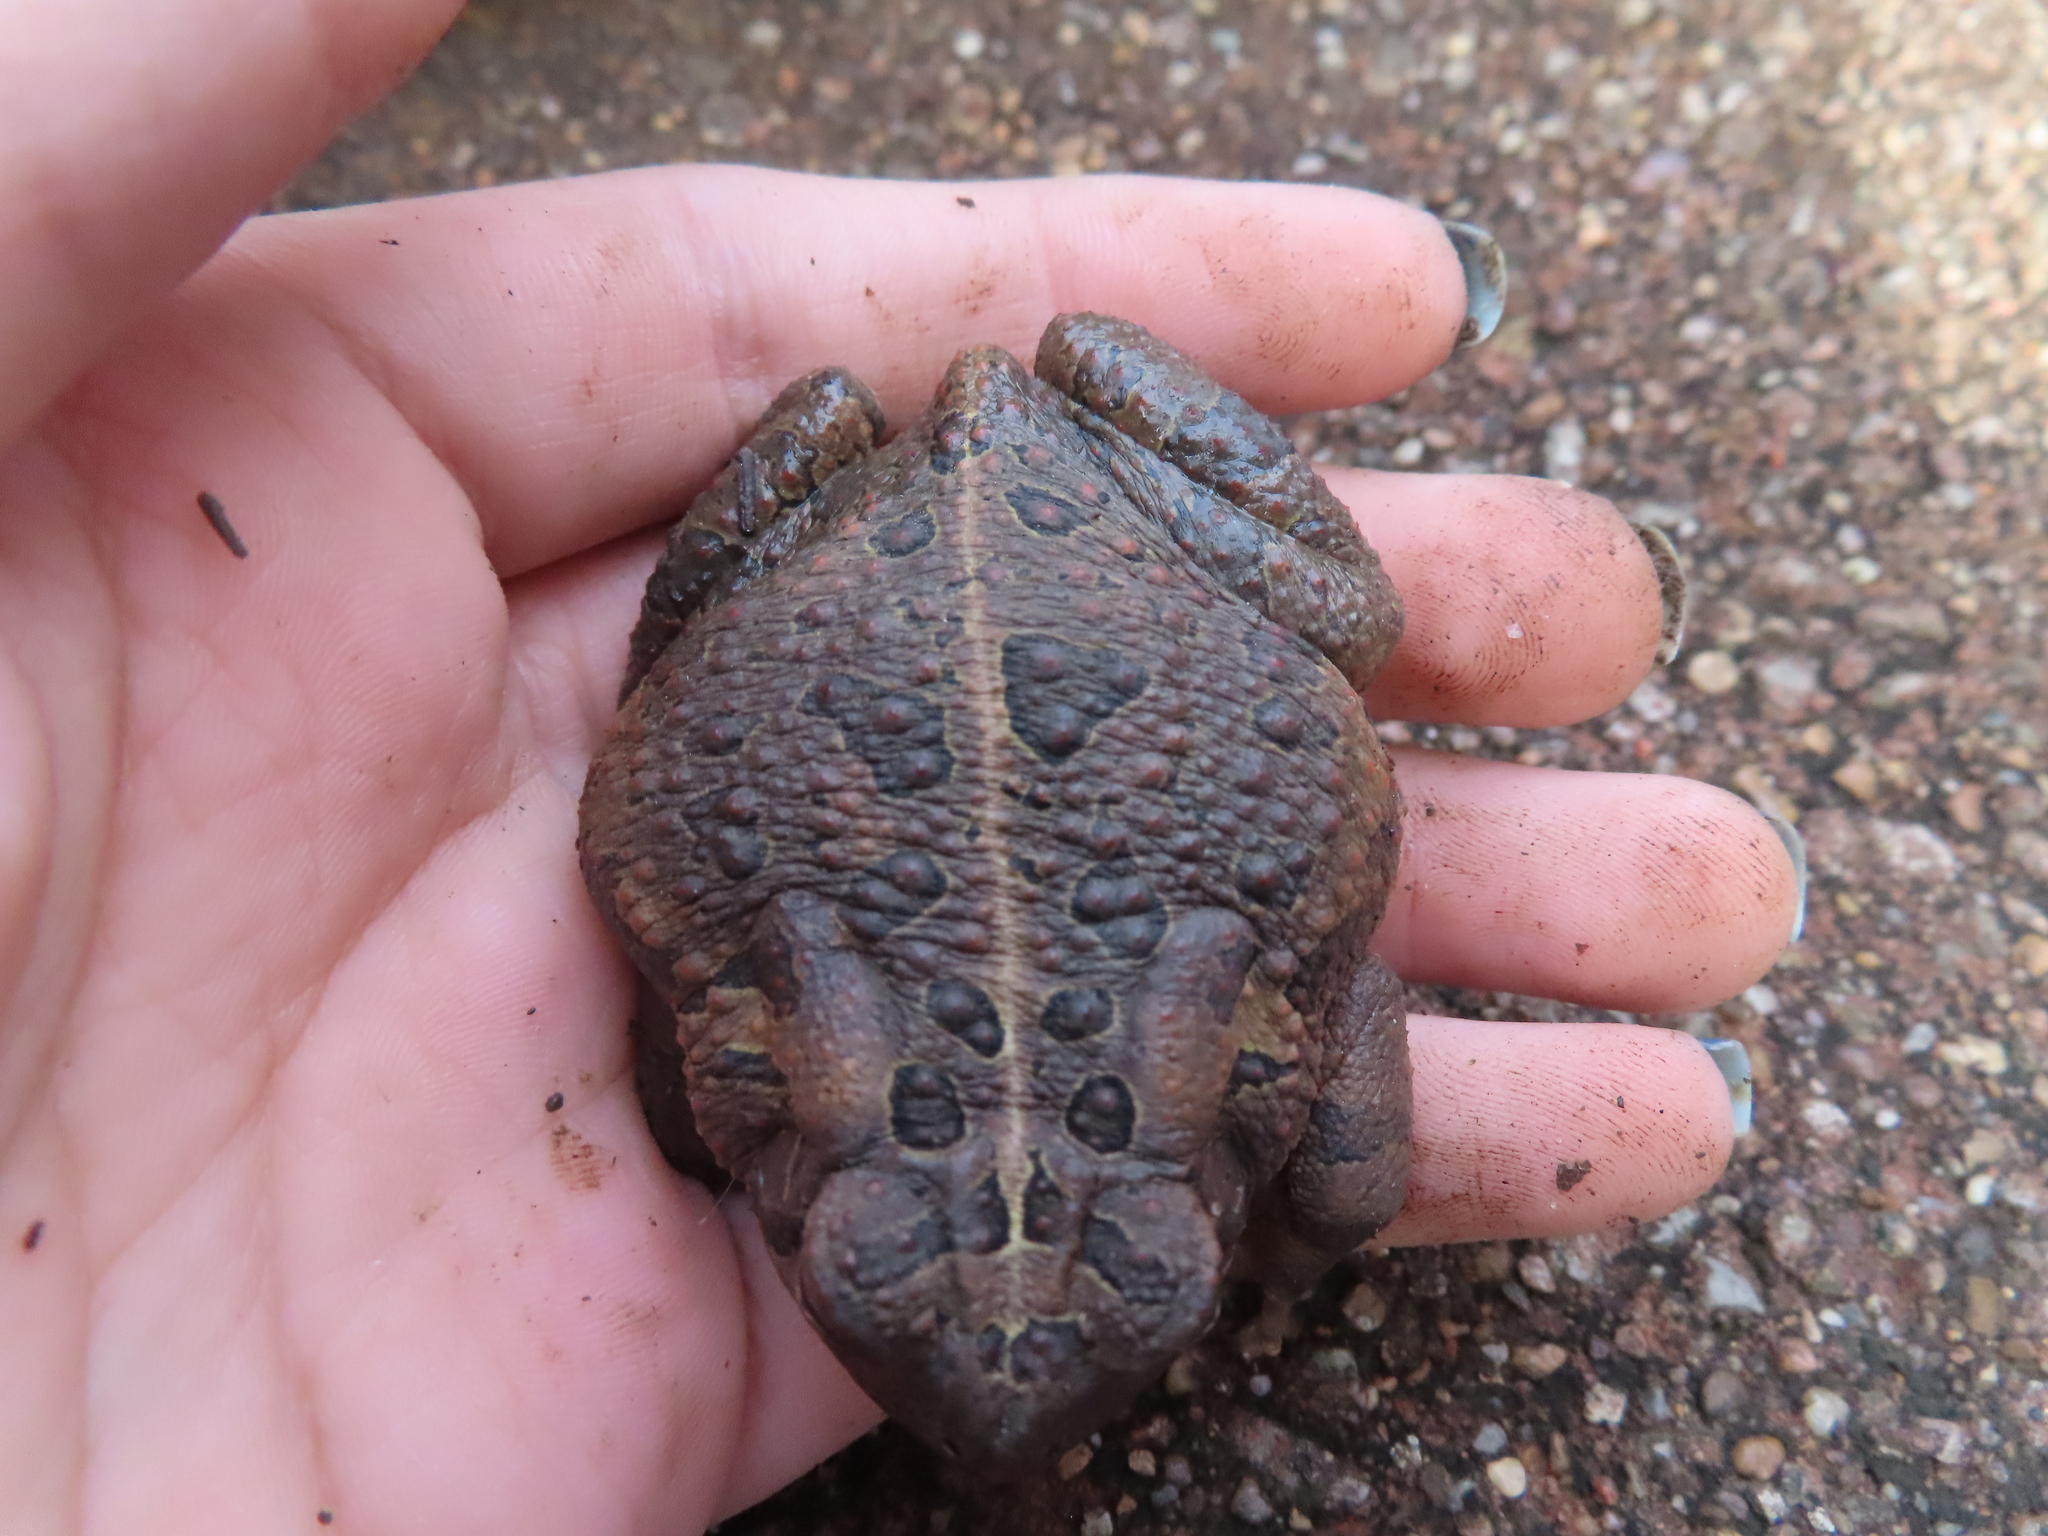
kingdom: Animalia
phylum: Chordata
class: Amphibia
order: Anura
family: Bufonidae
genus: Anaxyrus
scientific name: Anaxyrus fowleri
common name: Fowler's toad
